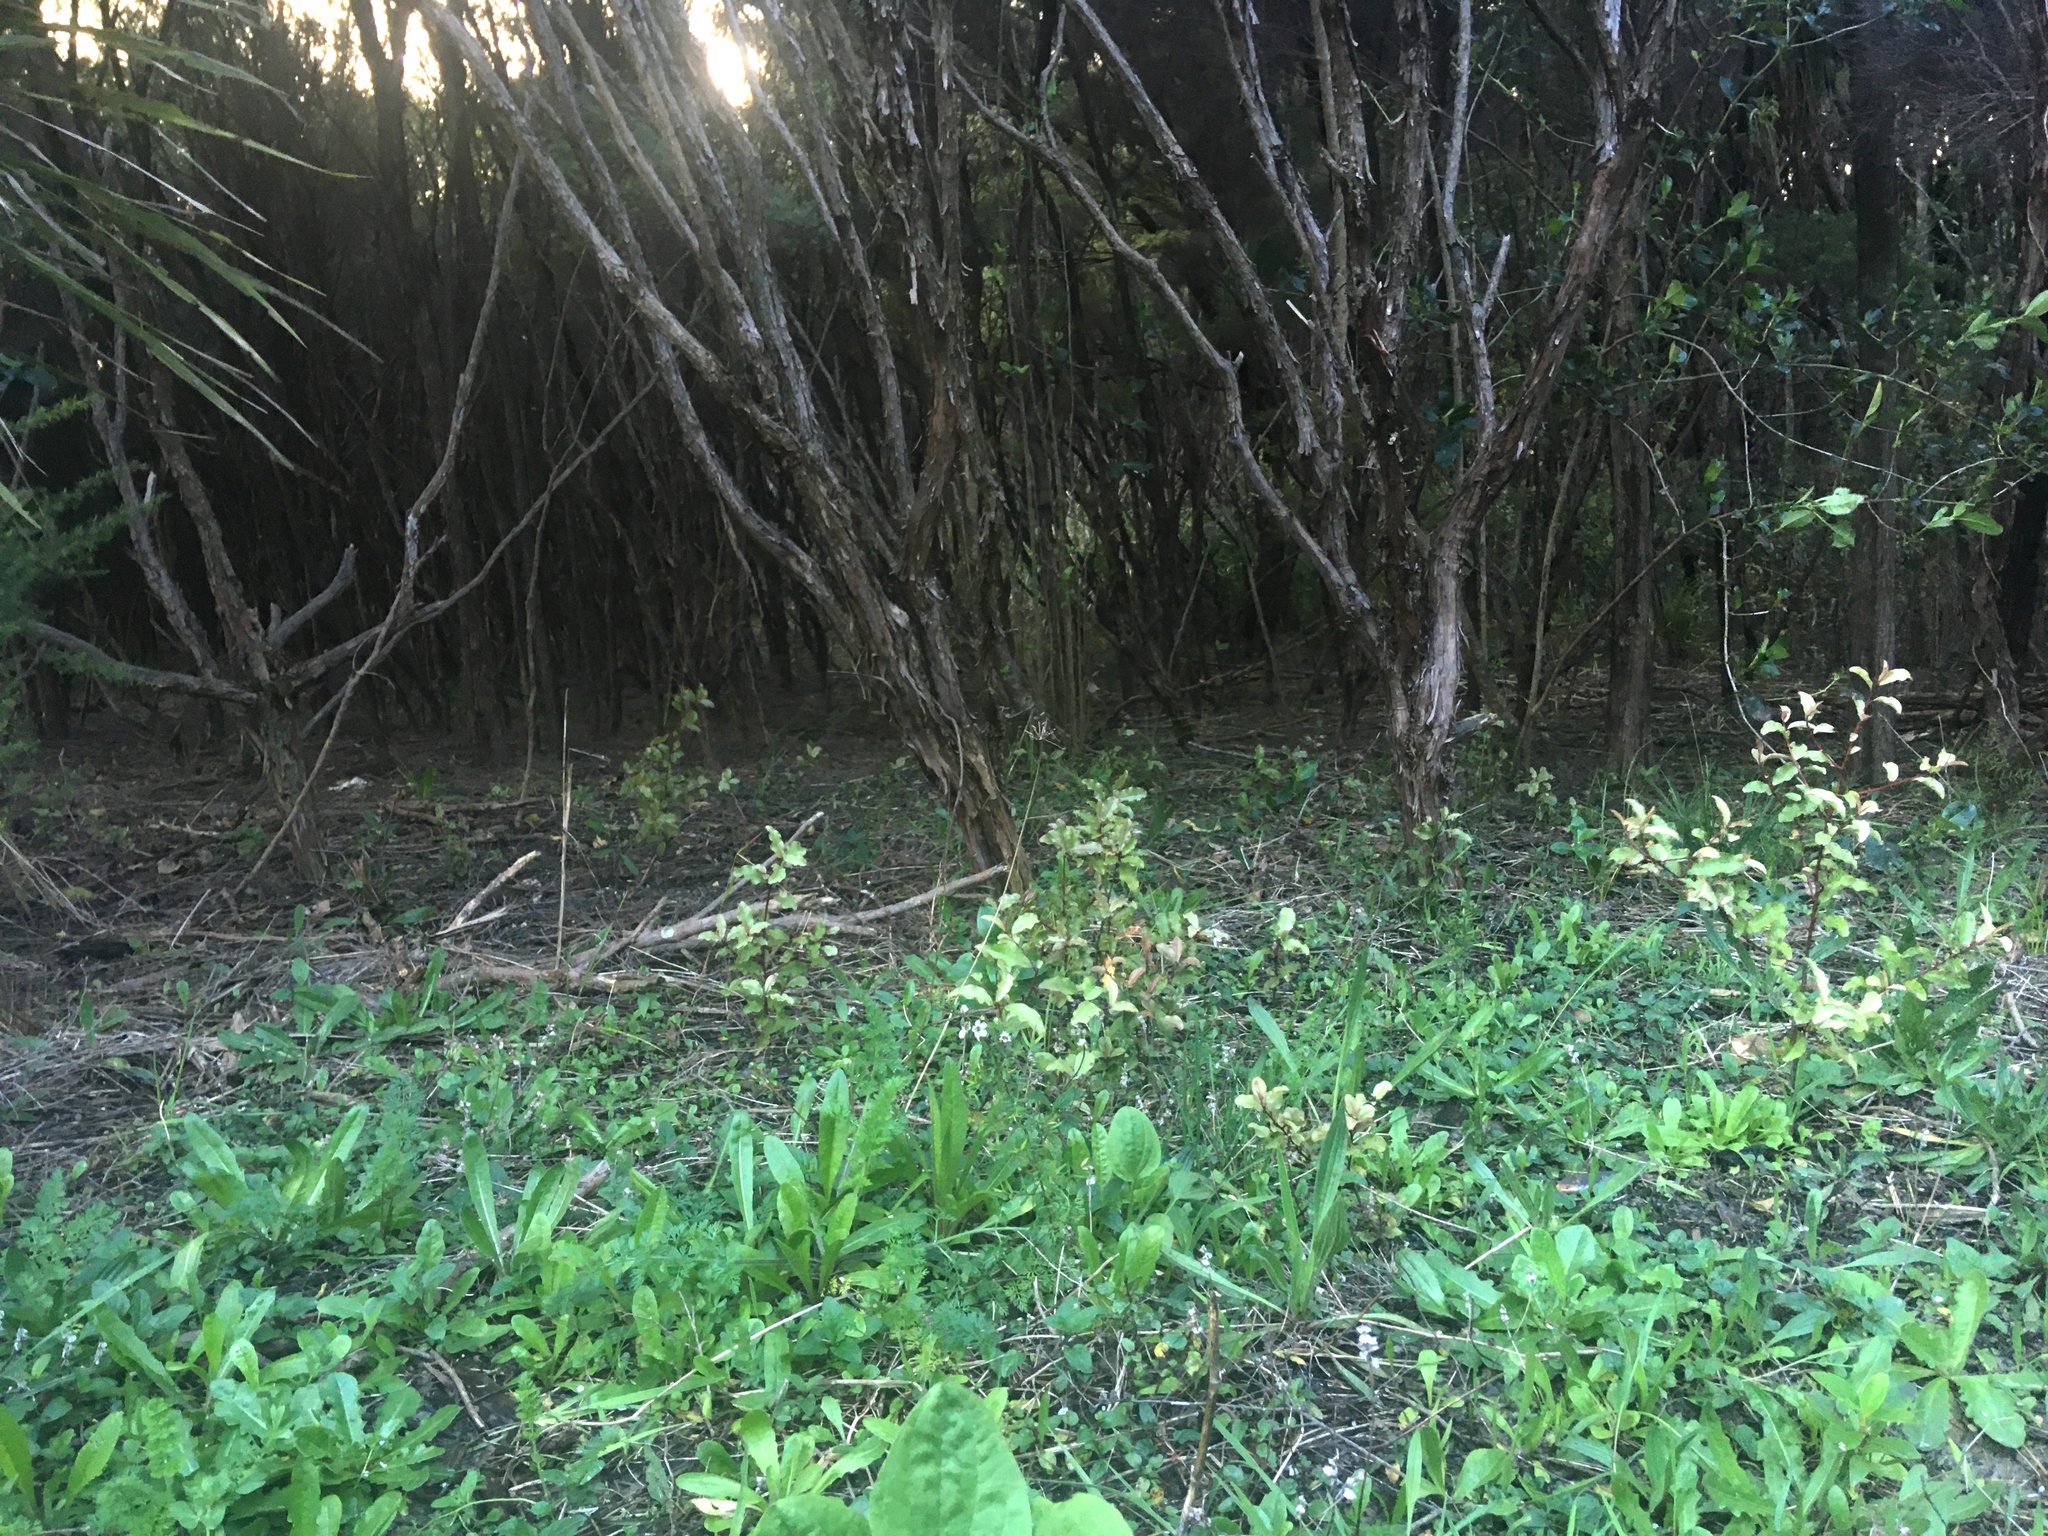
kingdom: Plantae
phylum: Tracheophyta
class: Magnoliopsida
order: Ericales
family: Primulaceae
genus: Myrsine
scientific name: Myrsine australis
